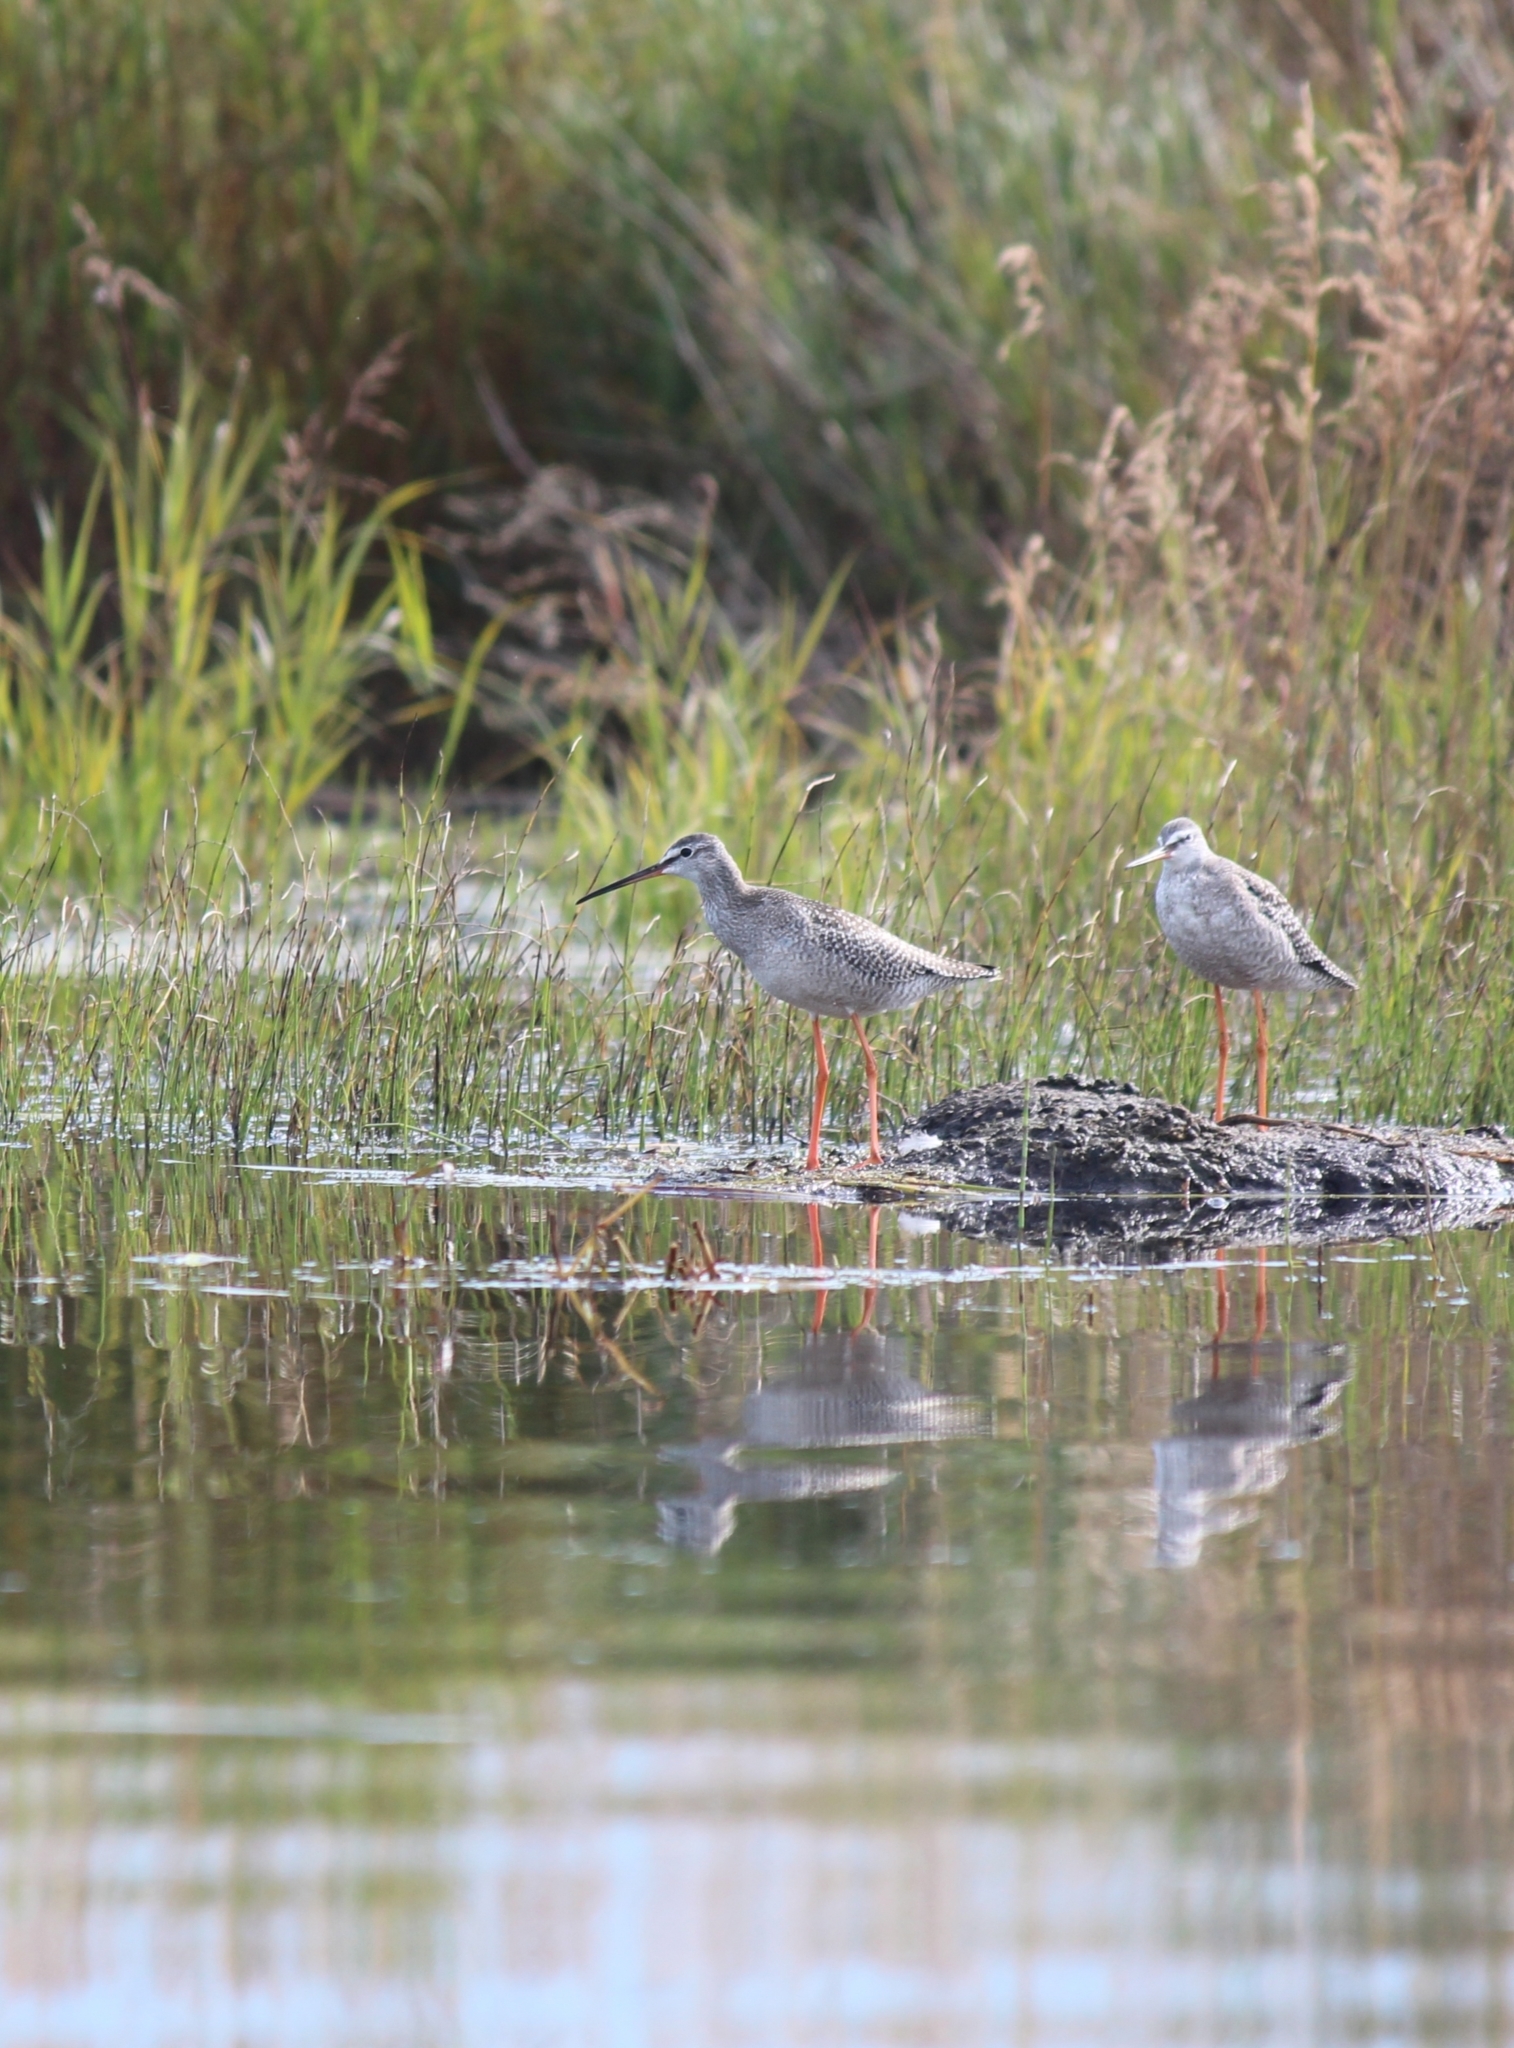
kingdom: Animalia
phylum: Chordata
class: Aves
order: Charadriiformes
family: Scolopacidae
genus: Tringa
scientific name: Tringa erythropus
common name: Spotted redshank
